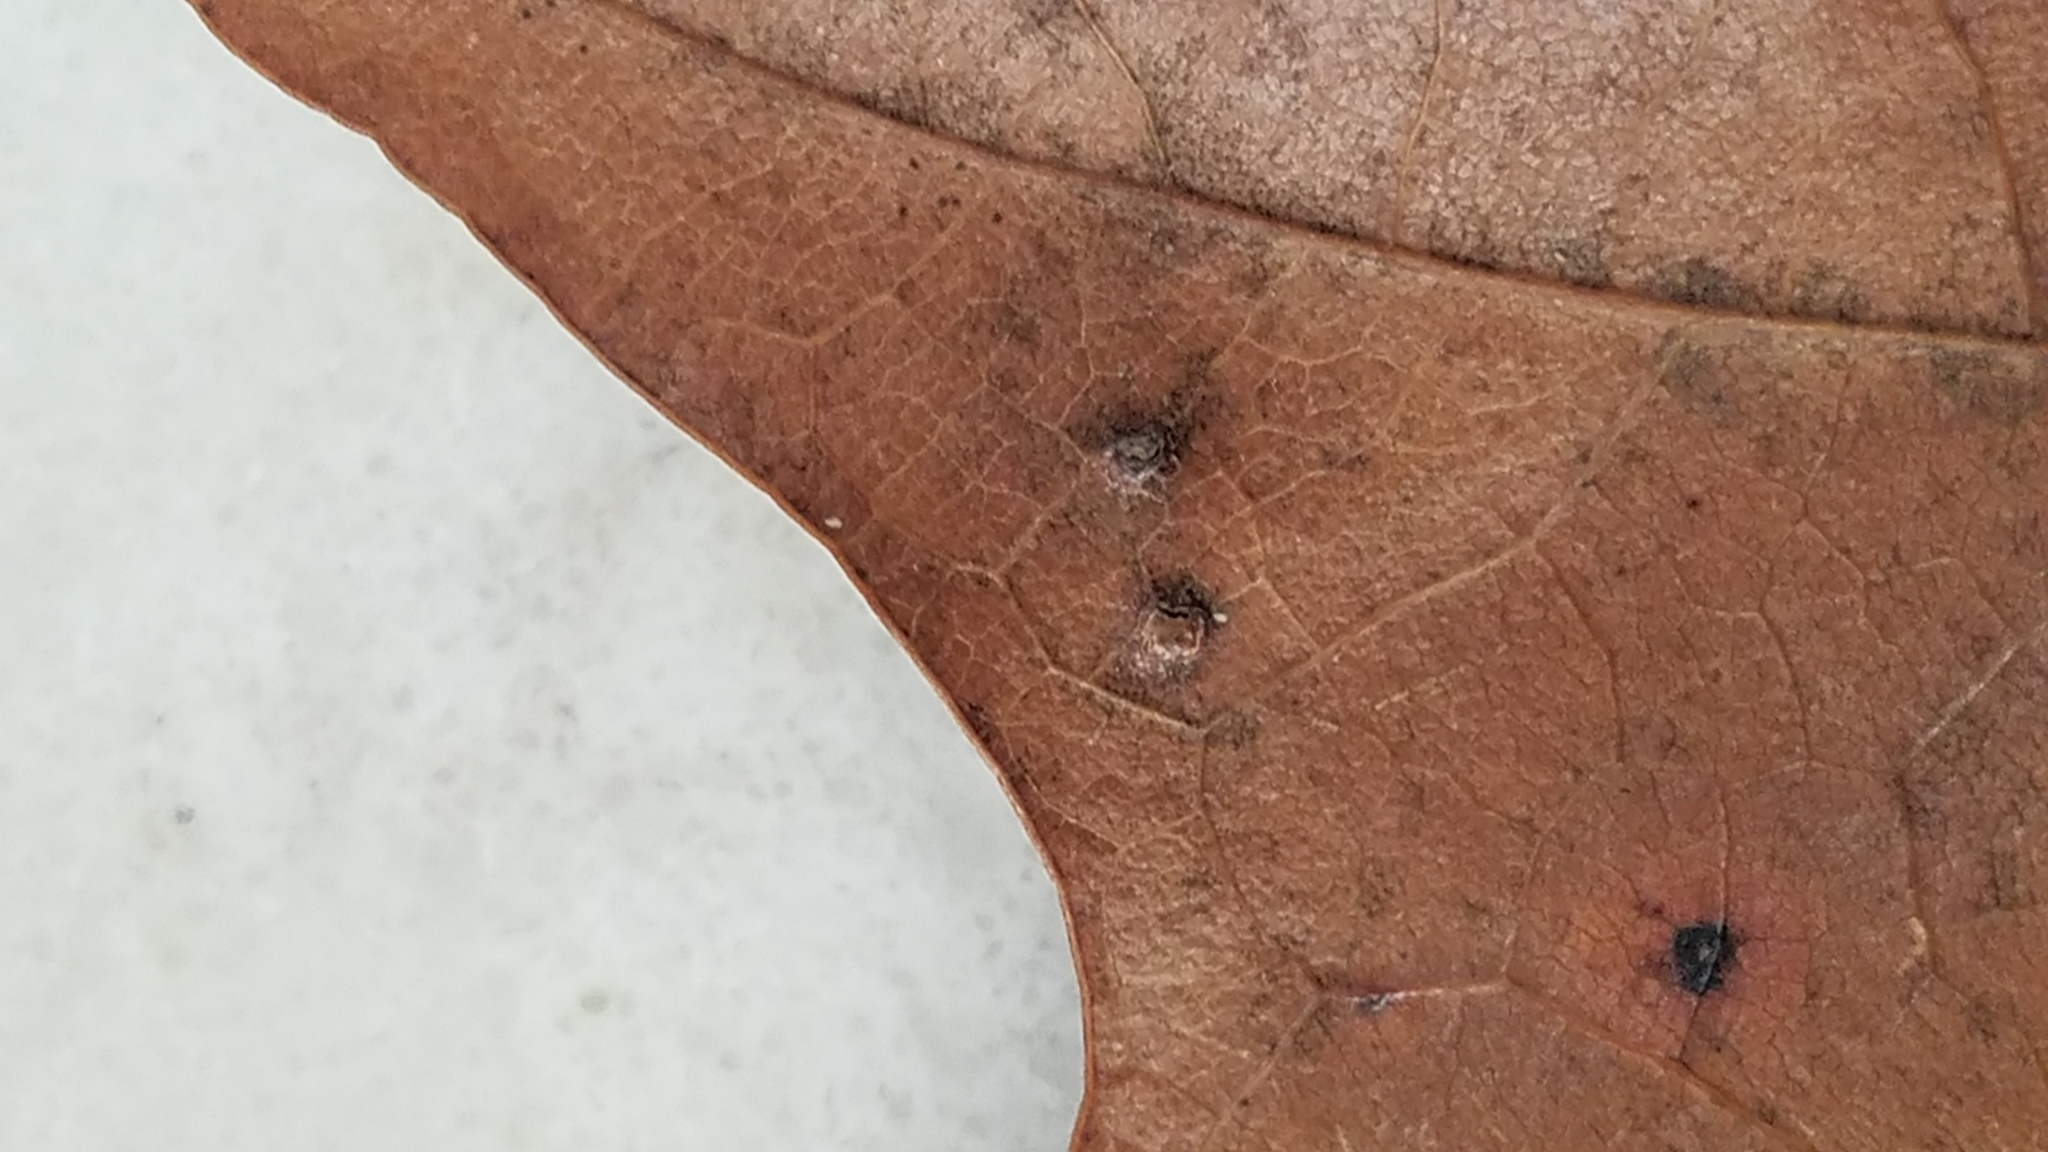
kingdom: Animalia
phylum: Arthropoda
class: Insecta
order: Diptera
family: Cecidomyiidae
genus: Polystepha
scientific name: Polystepha globosa
